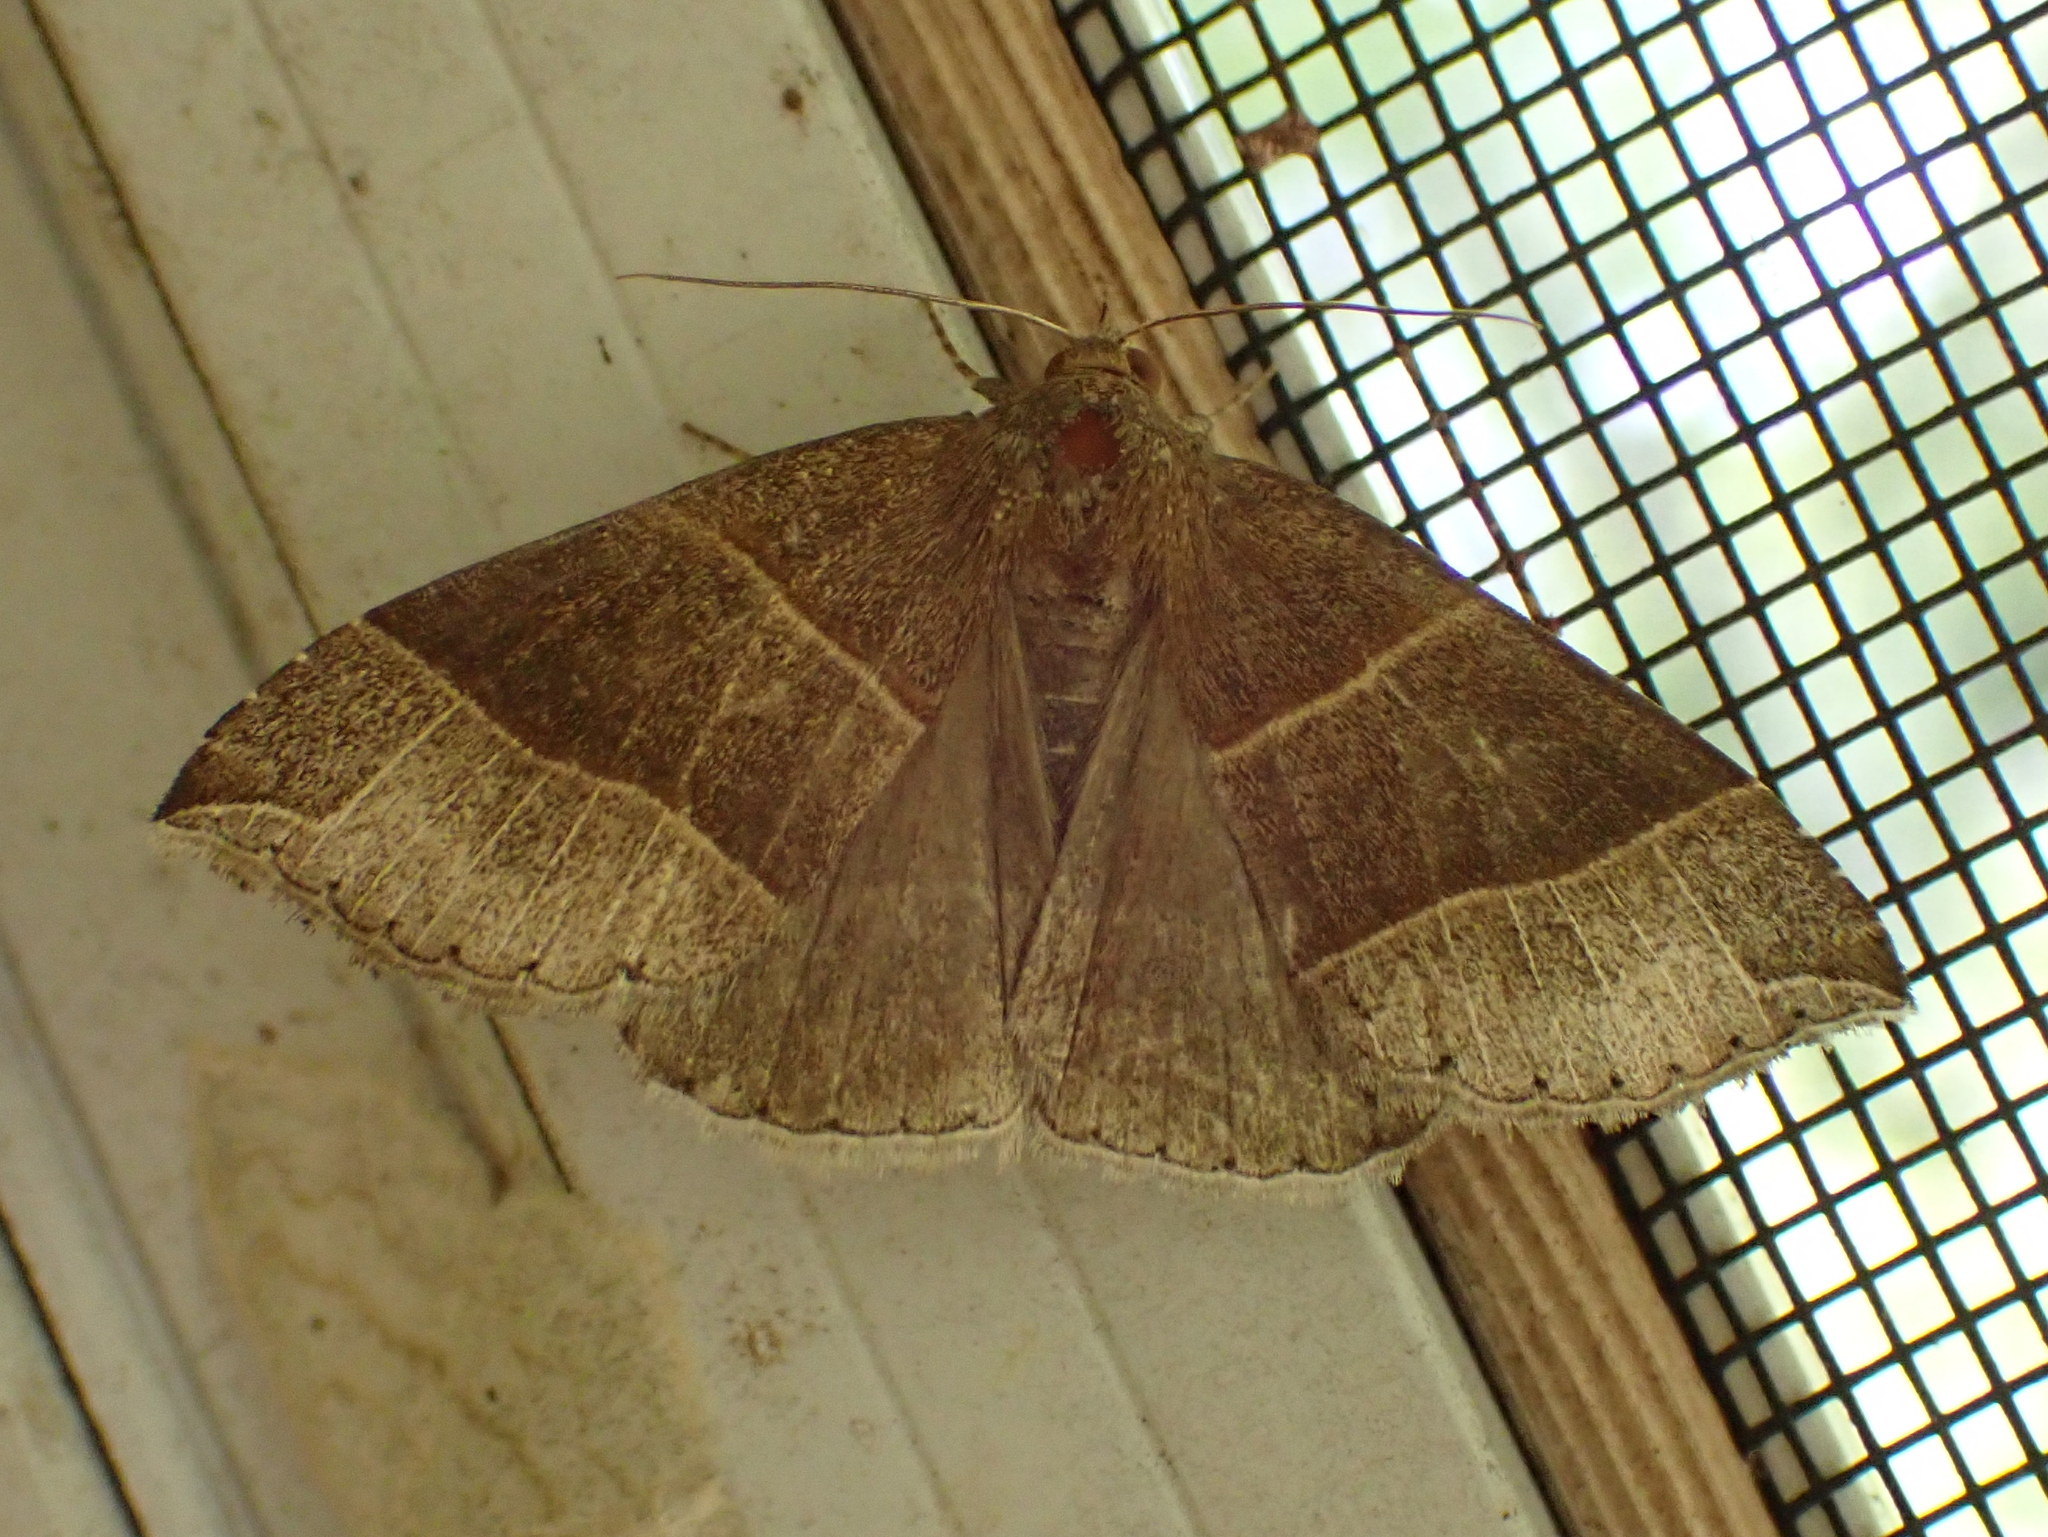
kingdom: Animalia
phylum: Arthropoda
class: Insecta
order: Lepidoptera
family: Erebidae
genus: Parallelia
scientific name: Parallelia bistriaris
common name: Maple looper moth
